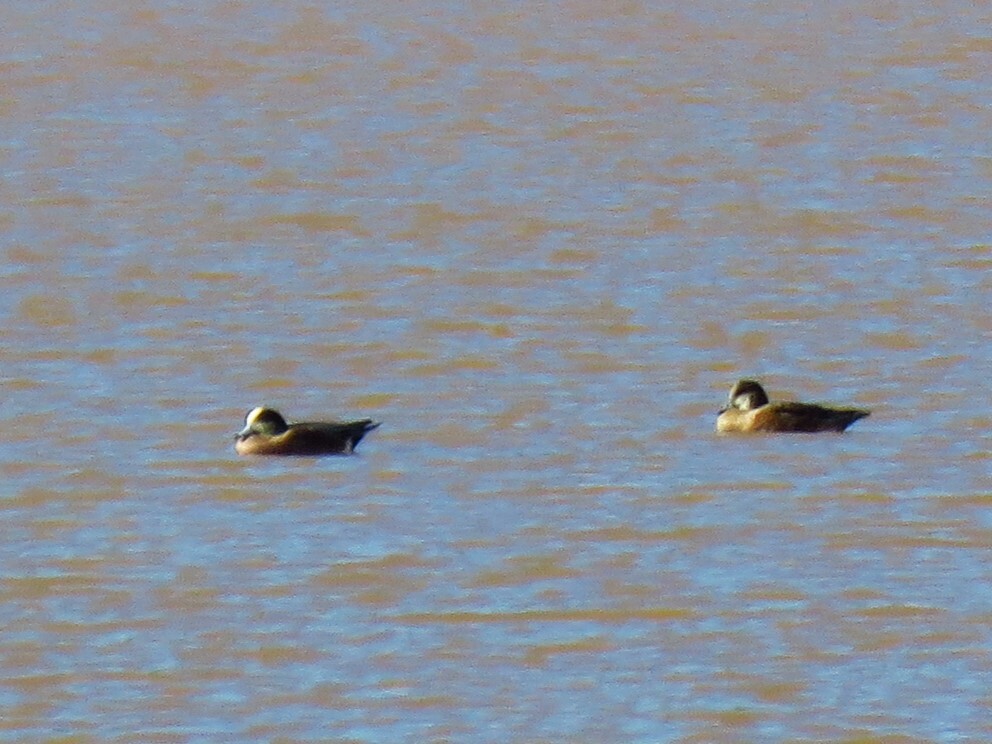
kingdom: Animalia
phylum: Chordata
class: Aves
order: Anseriformes
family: Anatidae
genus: Mareca
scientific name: Mareca americana
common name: American wigeon
